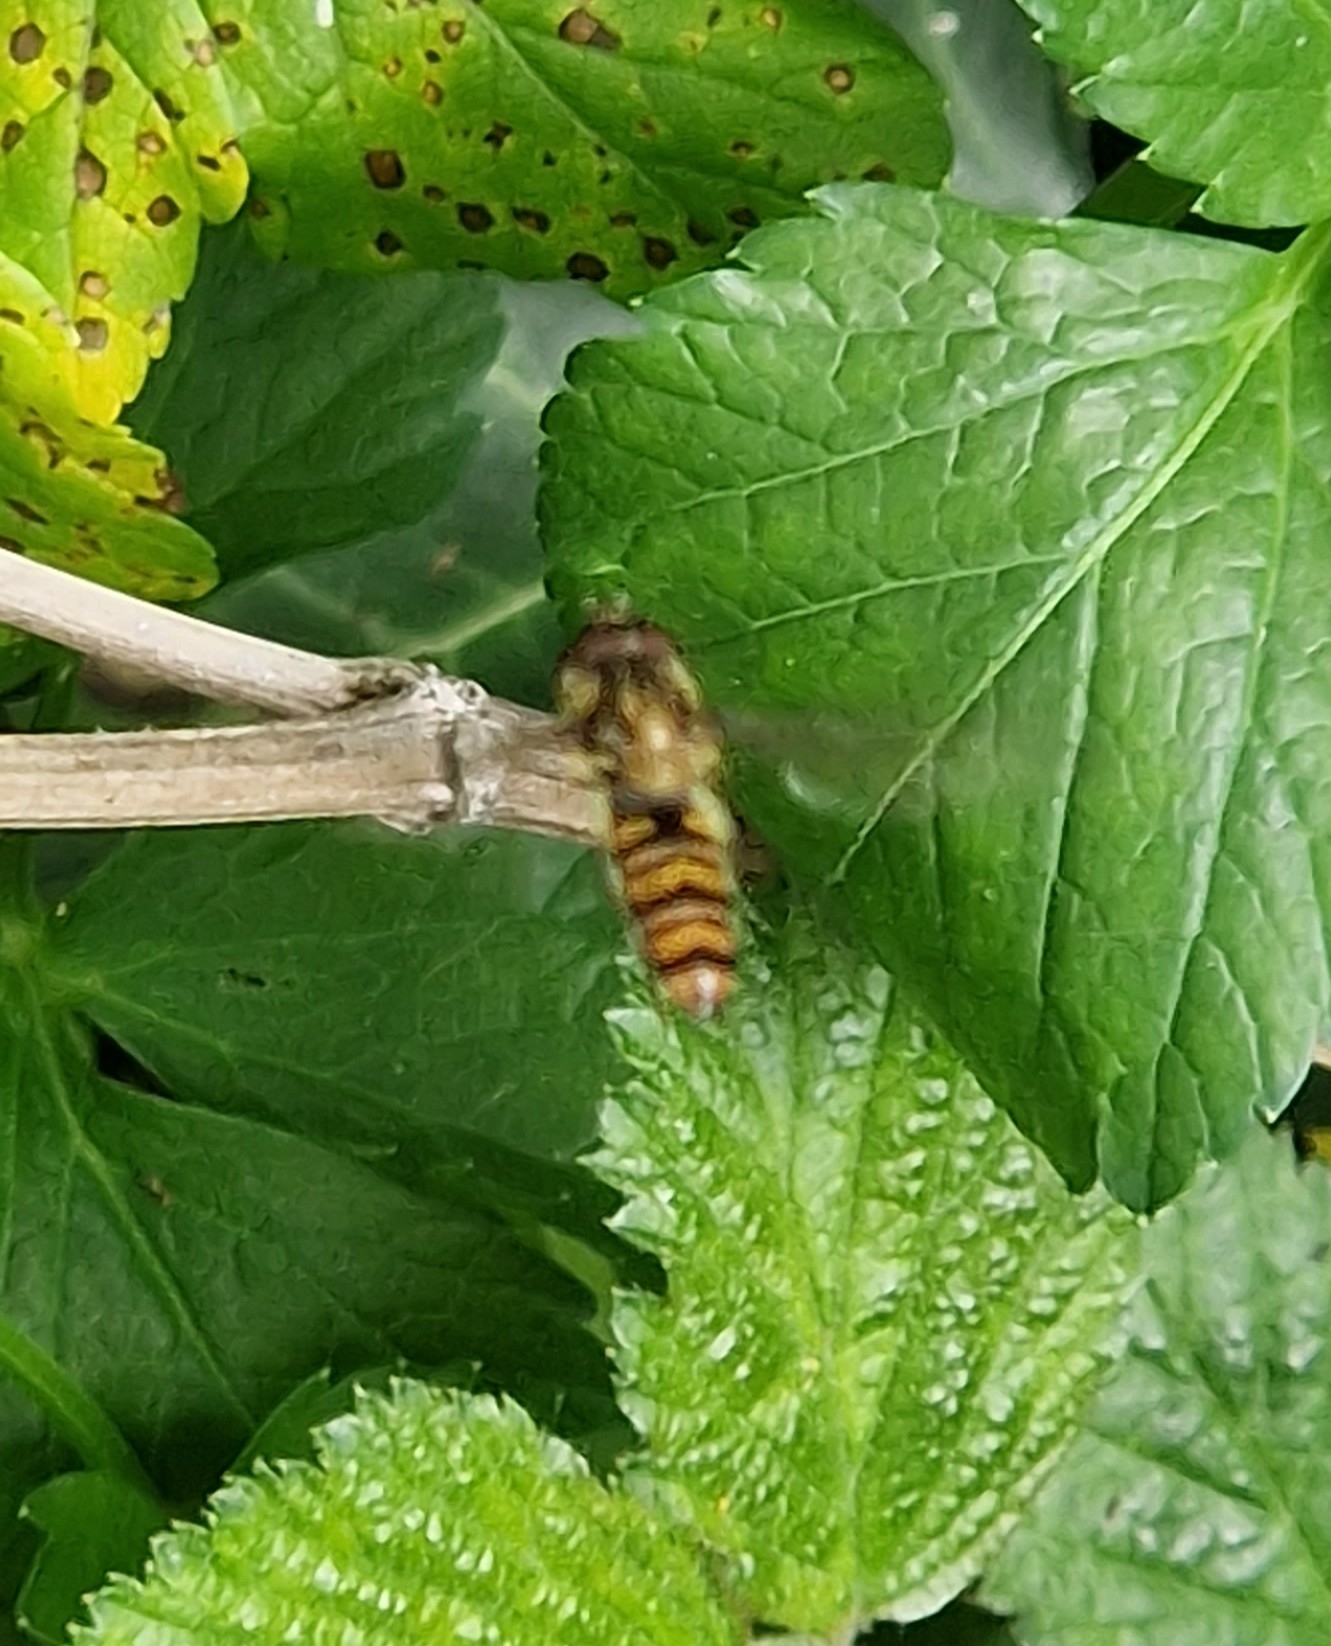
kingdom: Animalia
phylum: Arthropoda
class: Insecta
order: Diptera
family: Syrphidae
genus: Episyrphus
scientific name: Episyrphus balteatus
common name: Marmalade hoverfly
